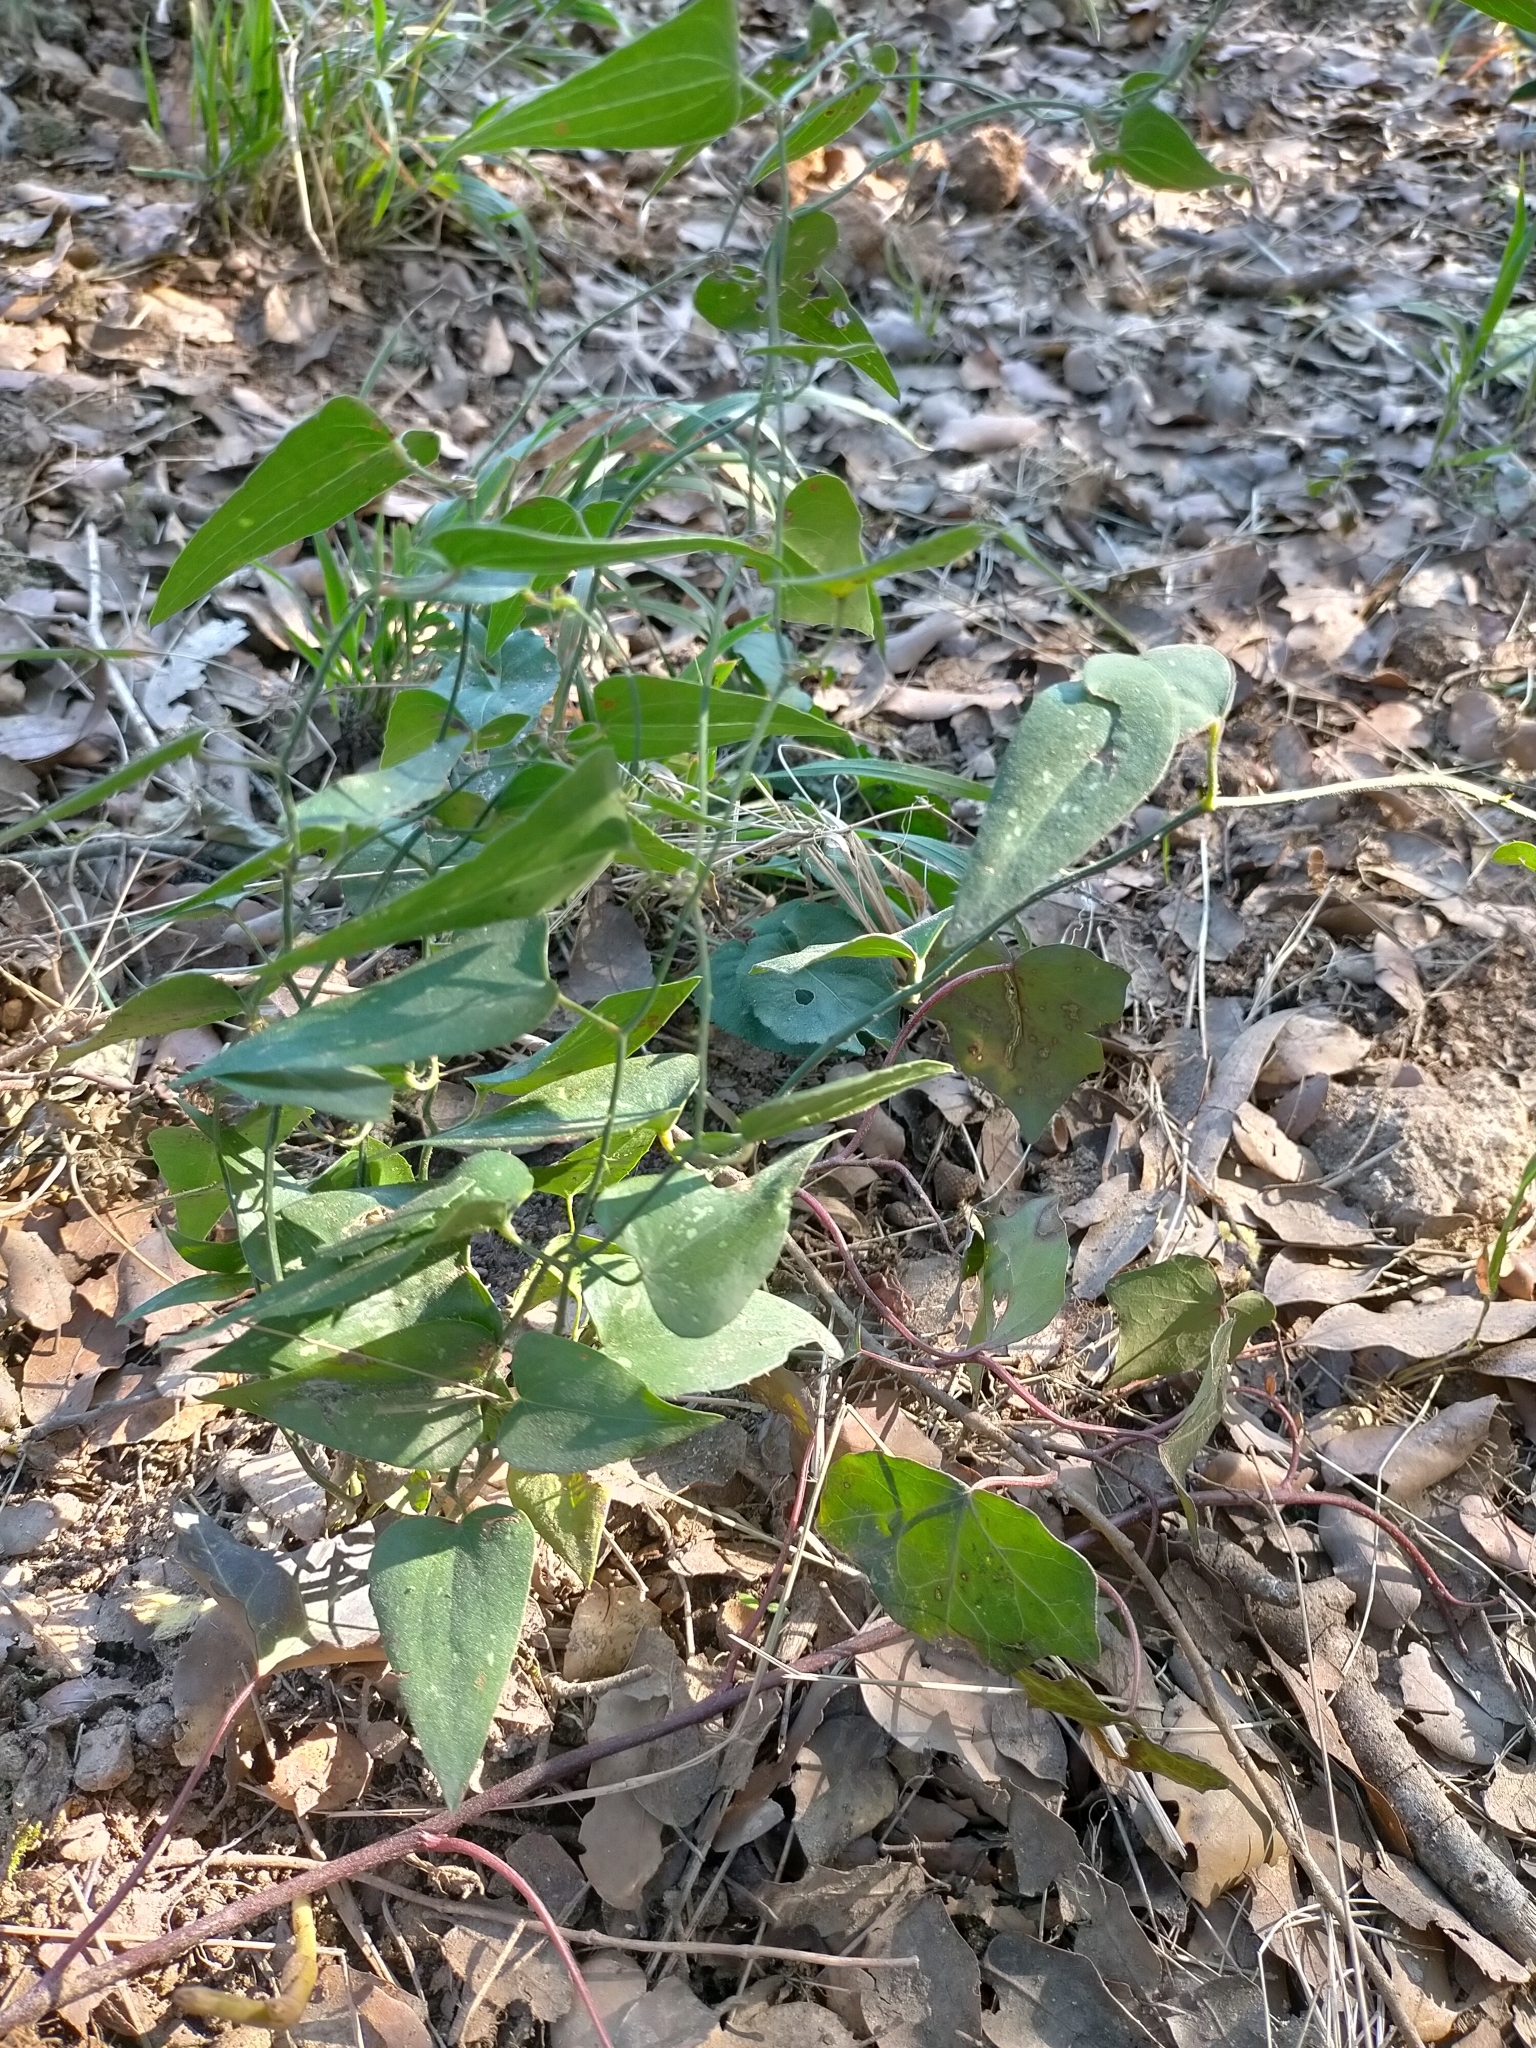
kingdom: Plantae
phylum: Tracheophyta
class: Liliopsida
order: Liliales
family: Smilacaceae
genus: Smilax
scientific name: Smilax aspera
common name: Common smilax
